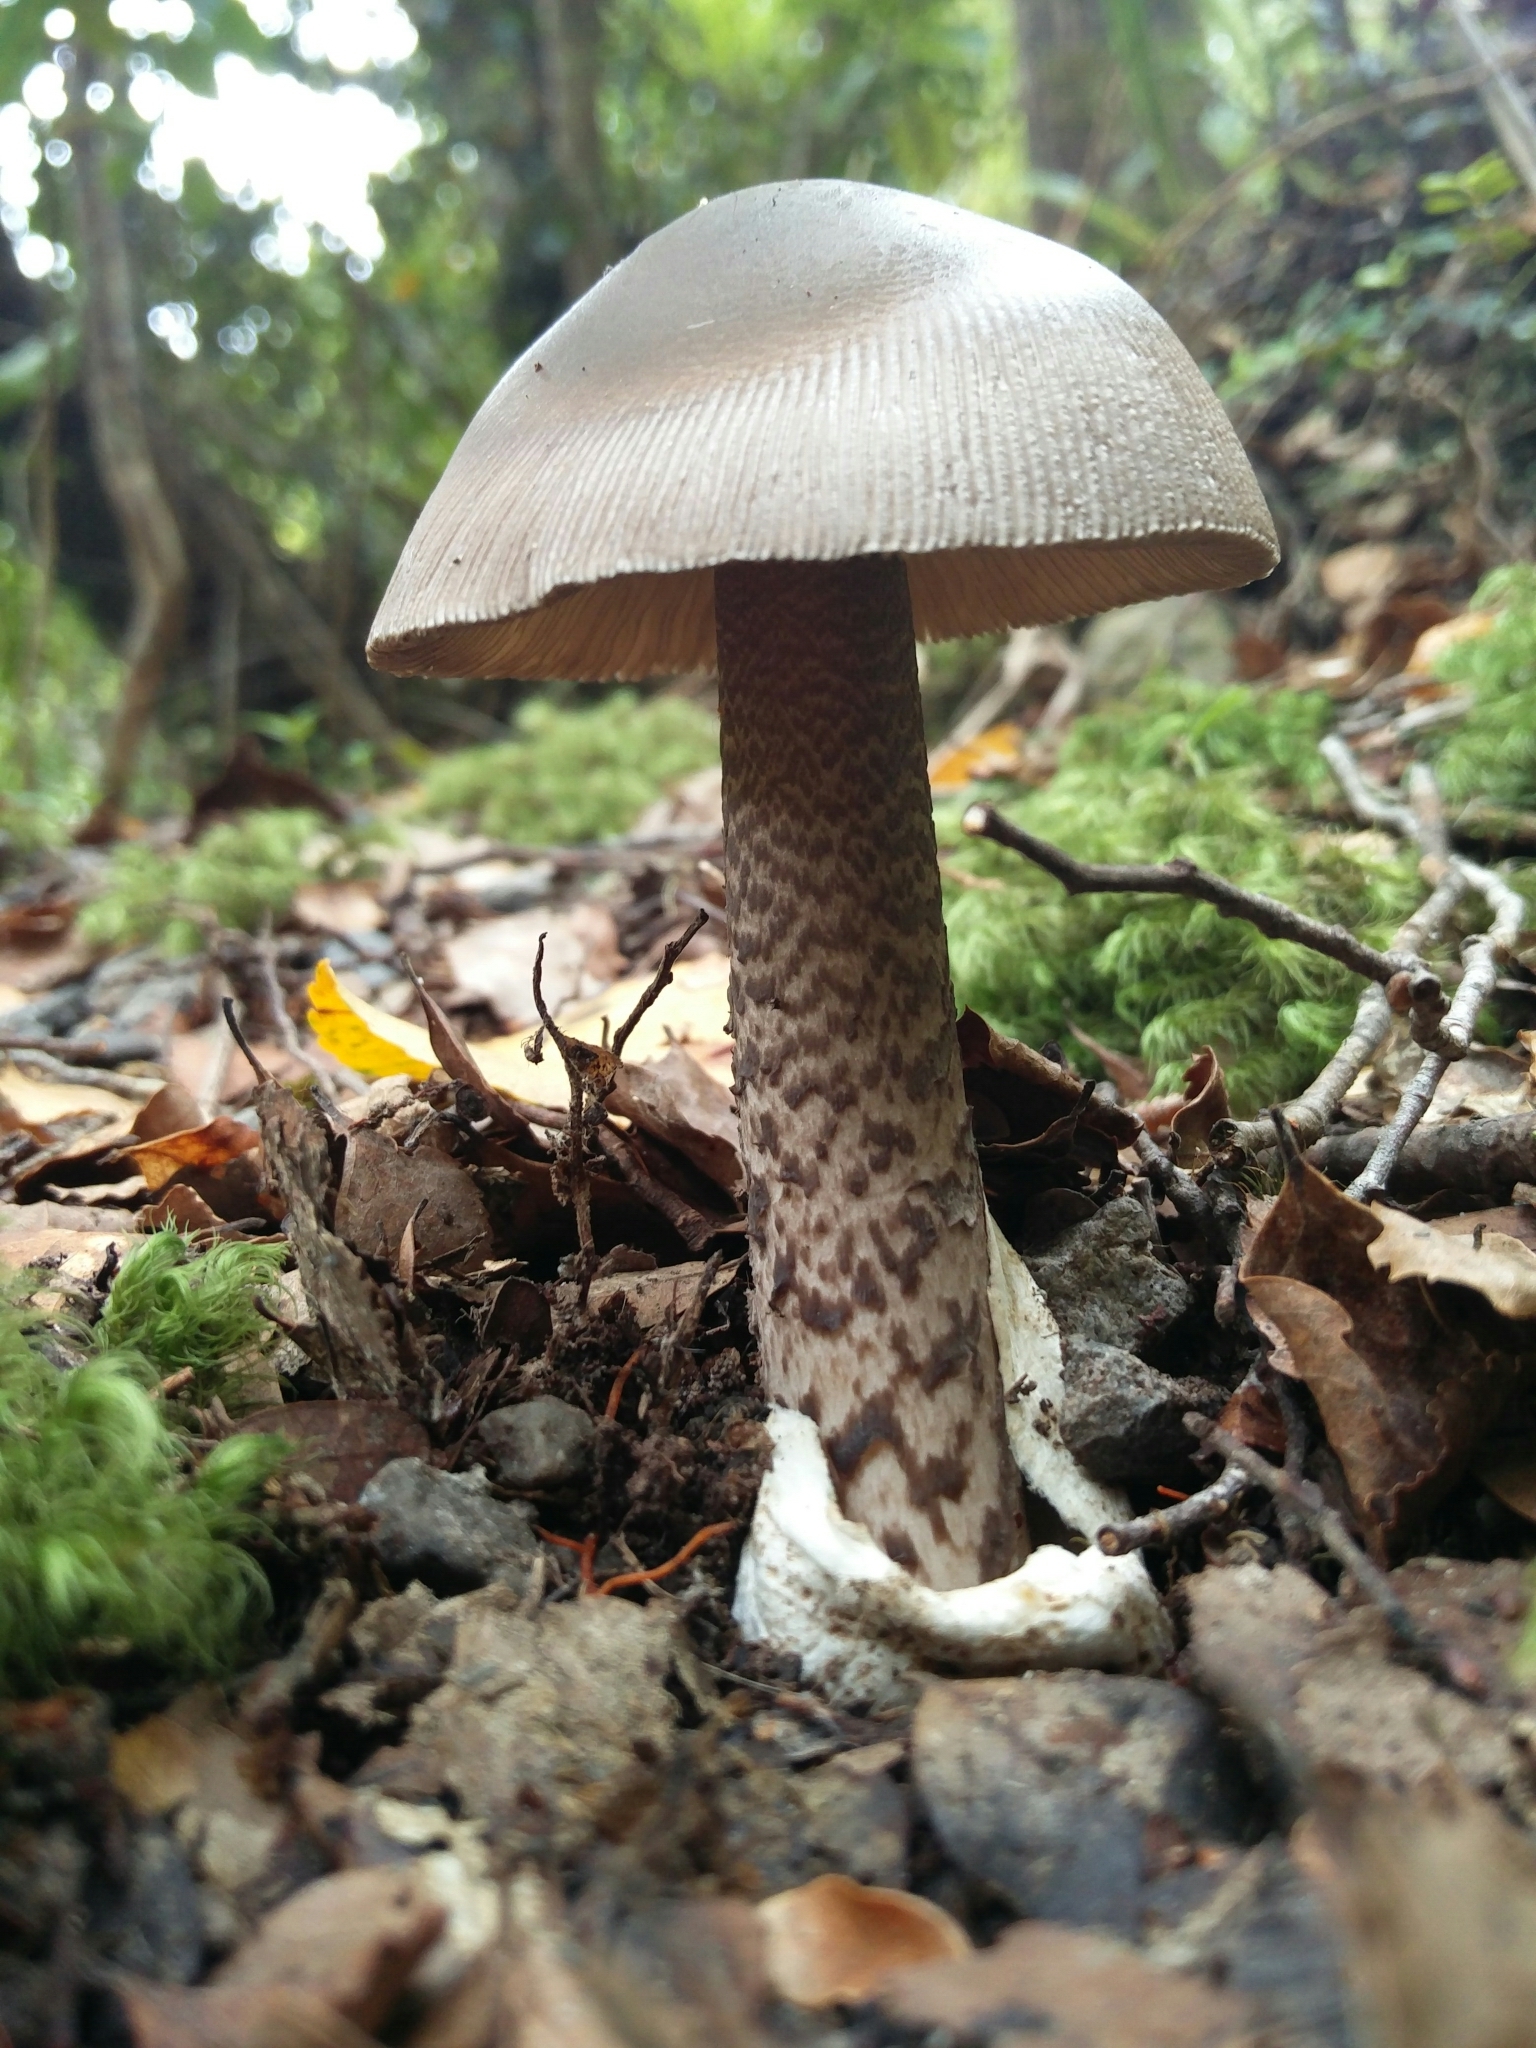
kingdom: Fungi
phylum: Basidiomycota
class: Agaricomycetes
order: Agaricales
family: Amanitaceae
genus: Amanita
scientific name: Amanita pekeoides
